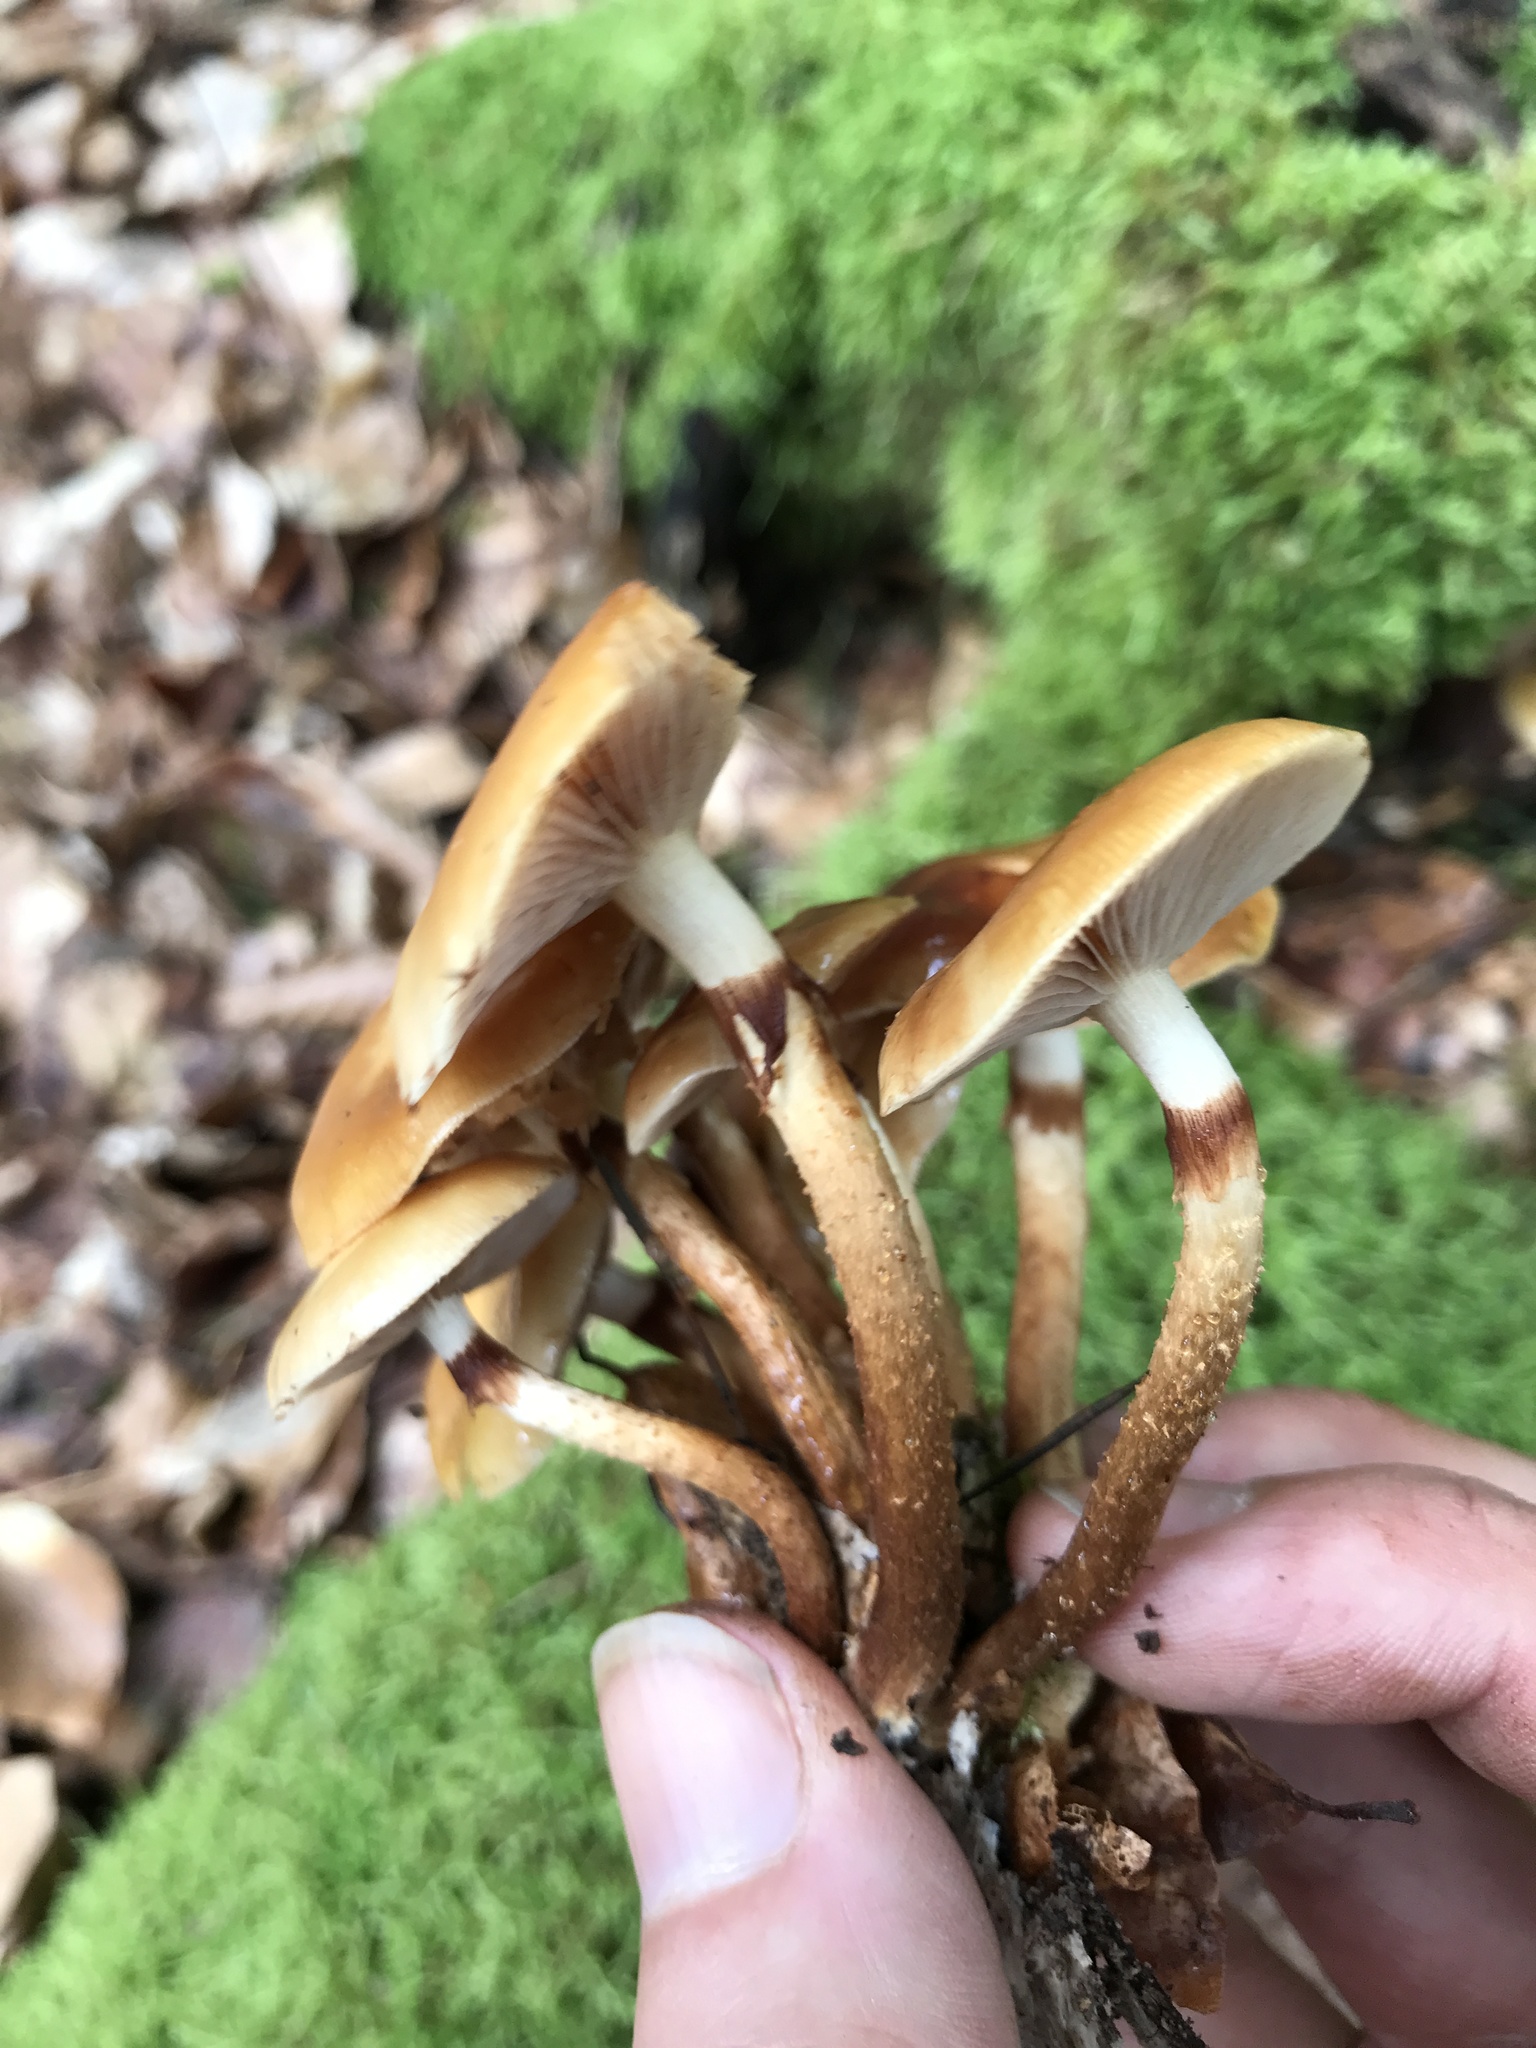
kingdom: Fungi
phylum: Basidiomycota
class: Agaricomycetes
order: Agaricales
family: Strophariaceae
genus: Kuehneromyces
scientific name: Kuehneromyces mutabilis
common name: Sheathed woodtuft
